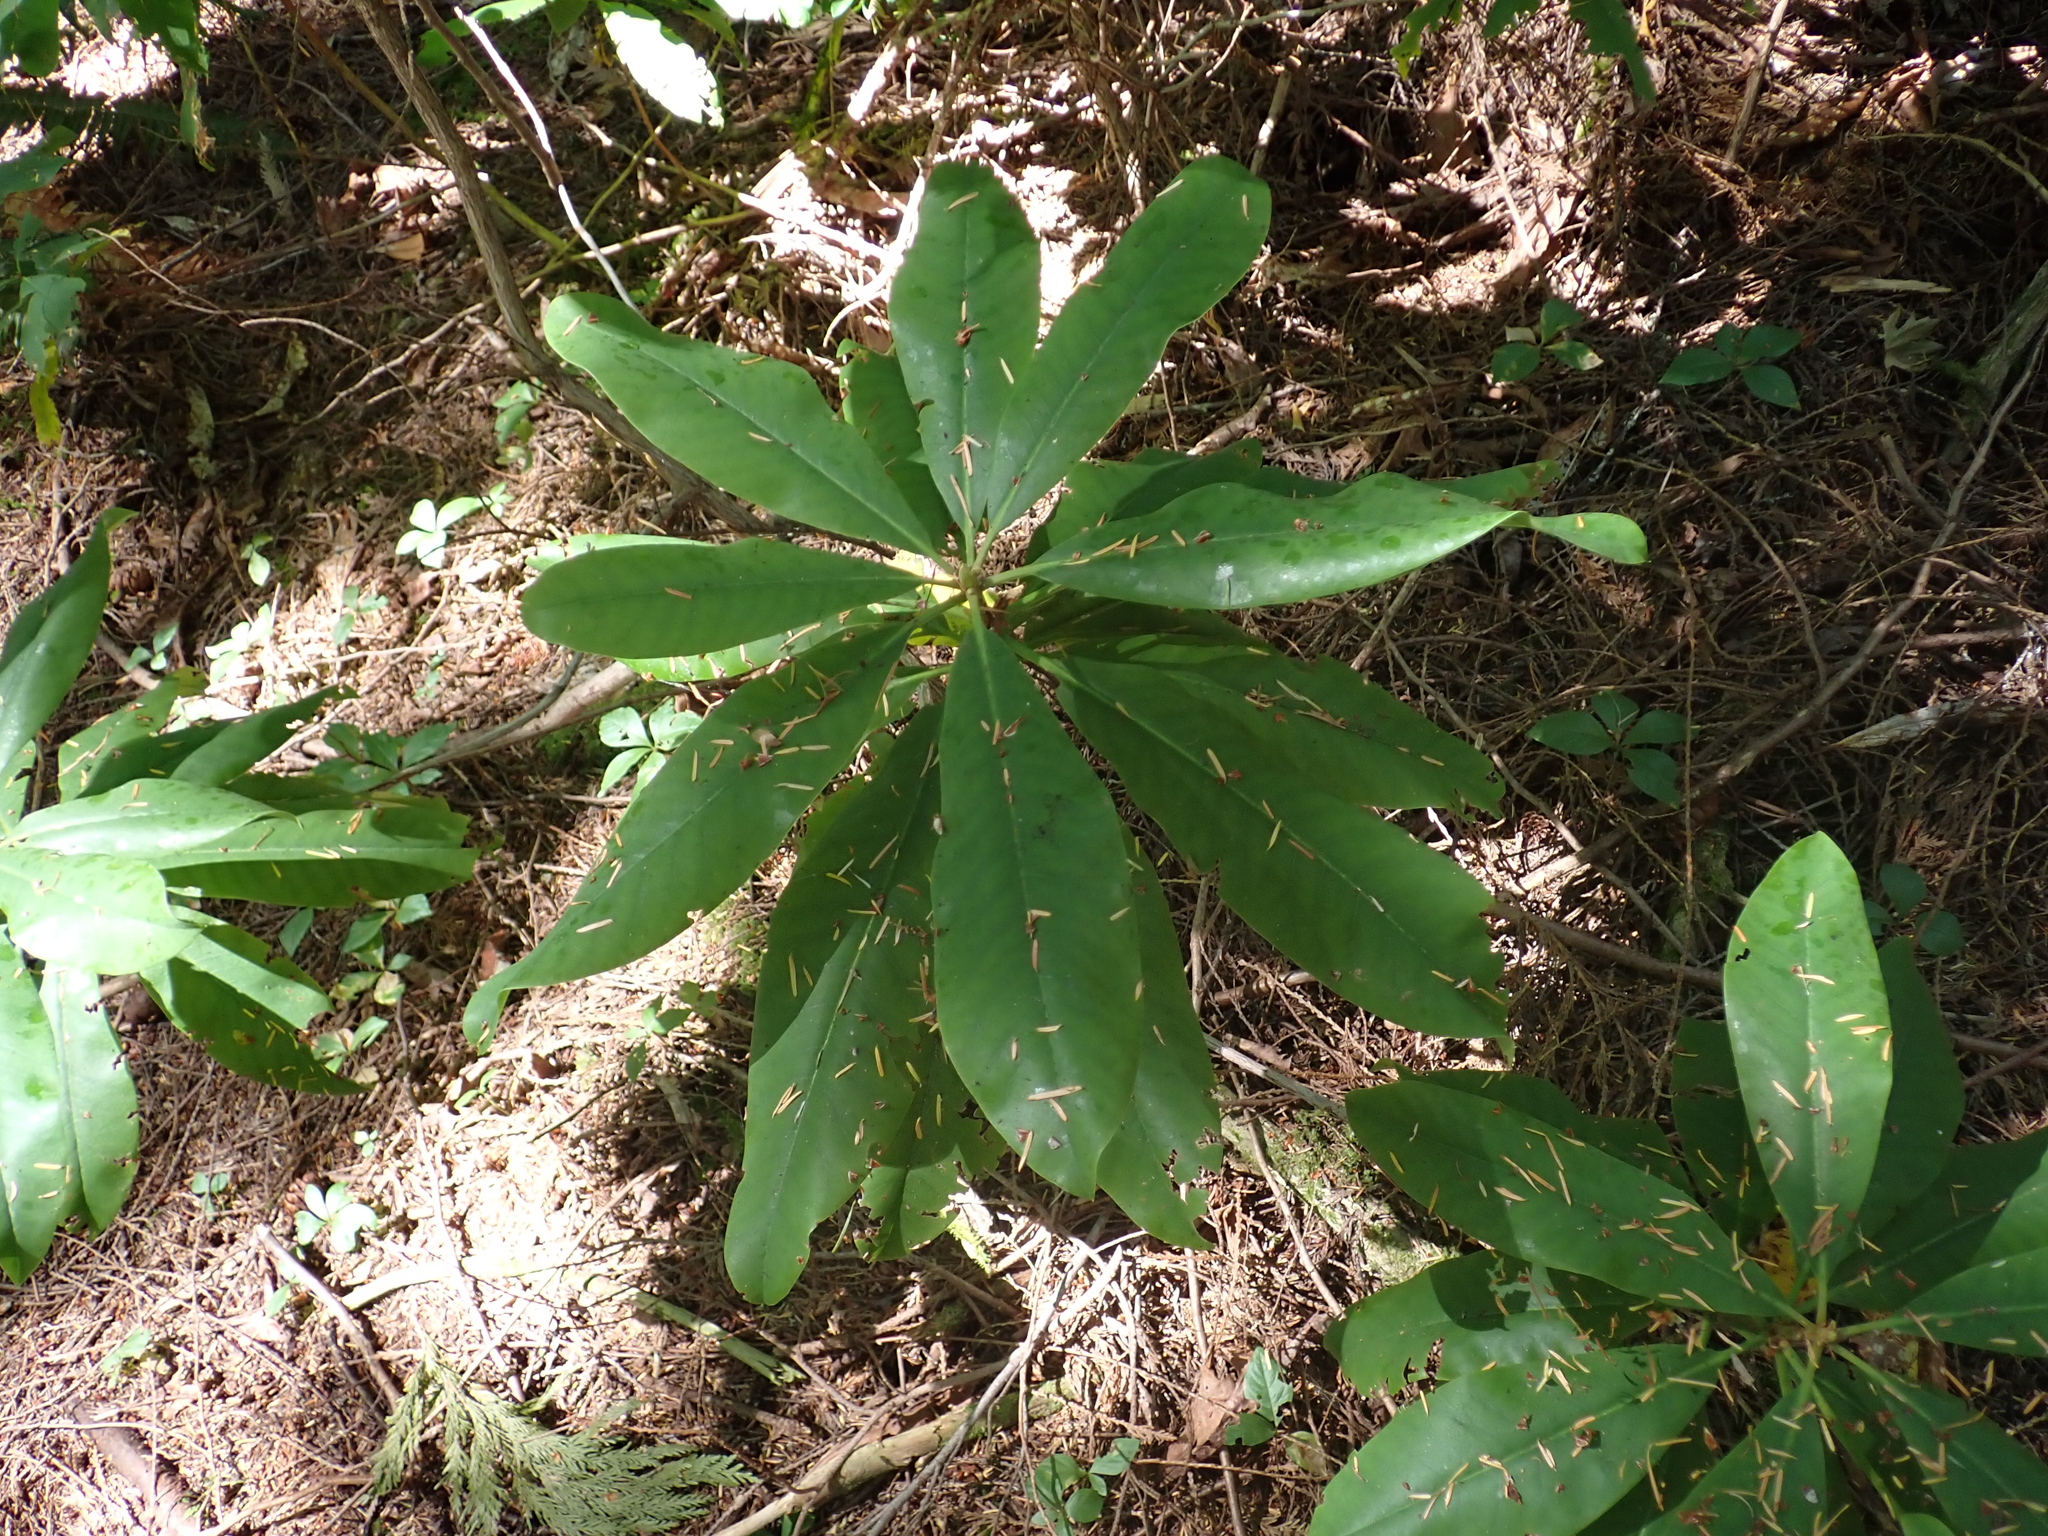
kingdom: Plantae
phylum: Tracheophyta
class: Magnoliopsida
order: Ericales
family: Ericaceae
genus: Rhododendron
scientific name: Rhododendron macrophyllum
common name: California rose bay
